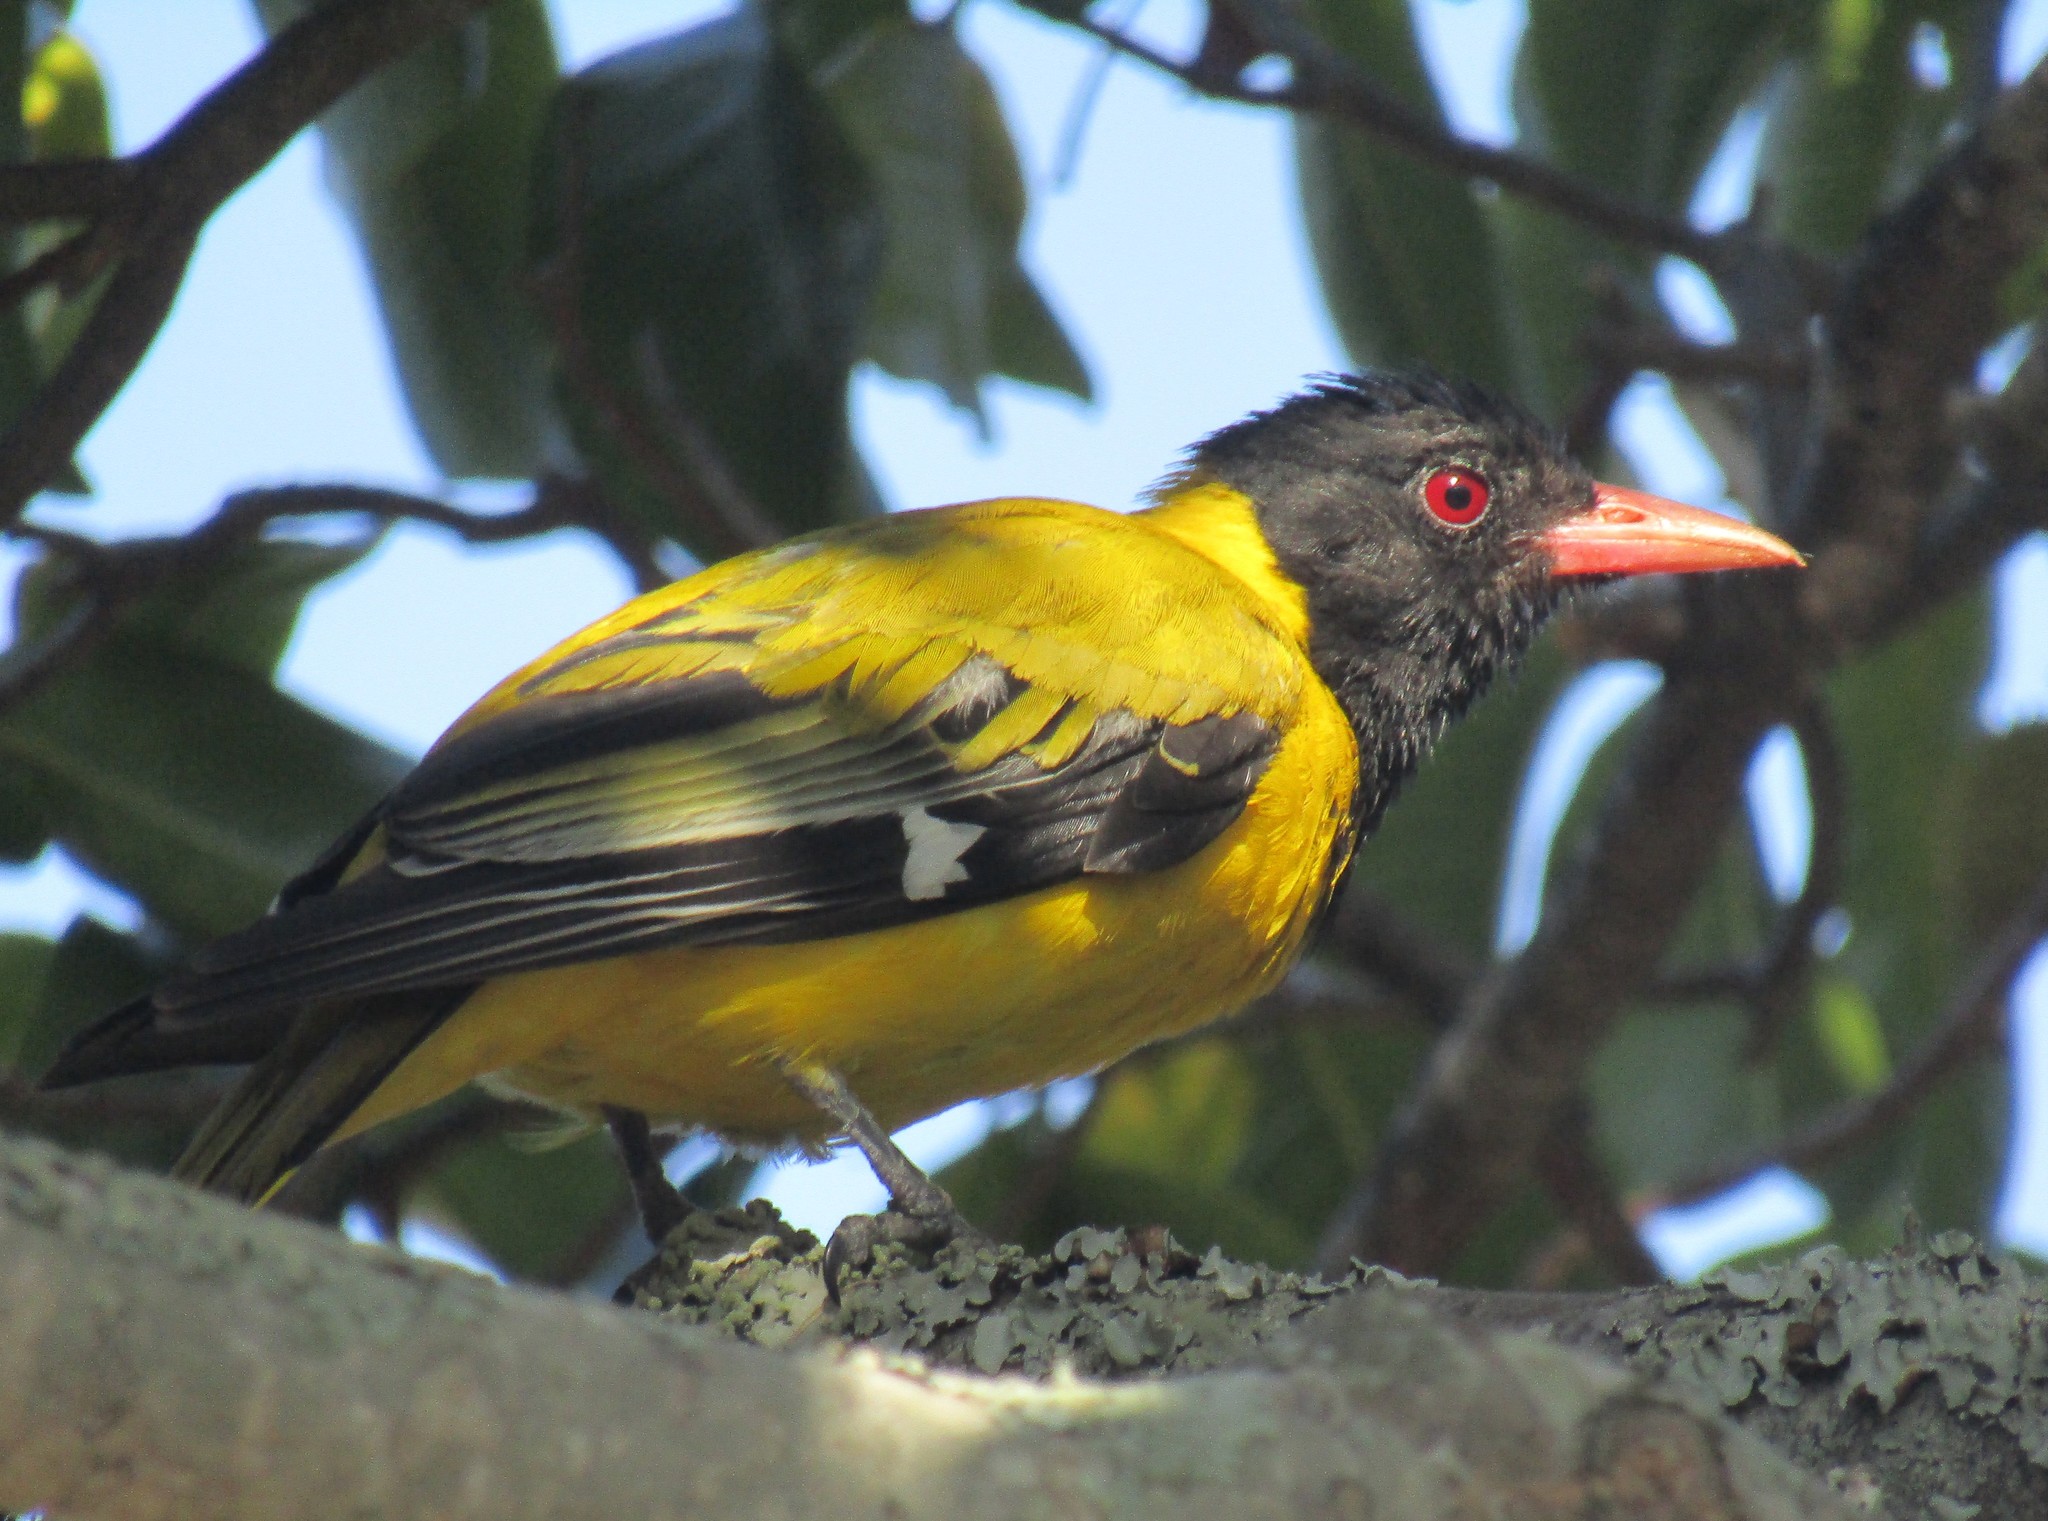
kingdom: Animalia
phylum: Chordata
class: Aves
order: Passeriformes
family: Oriolidae
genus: Oriolus
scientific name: Oriolus larvatus
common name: Black-headed oriole
